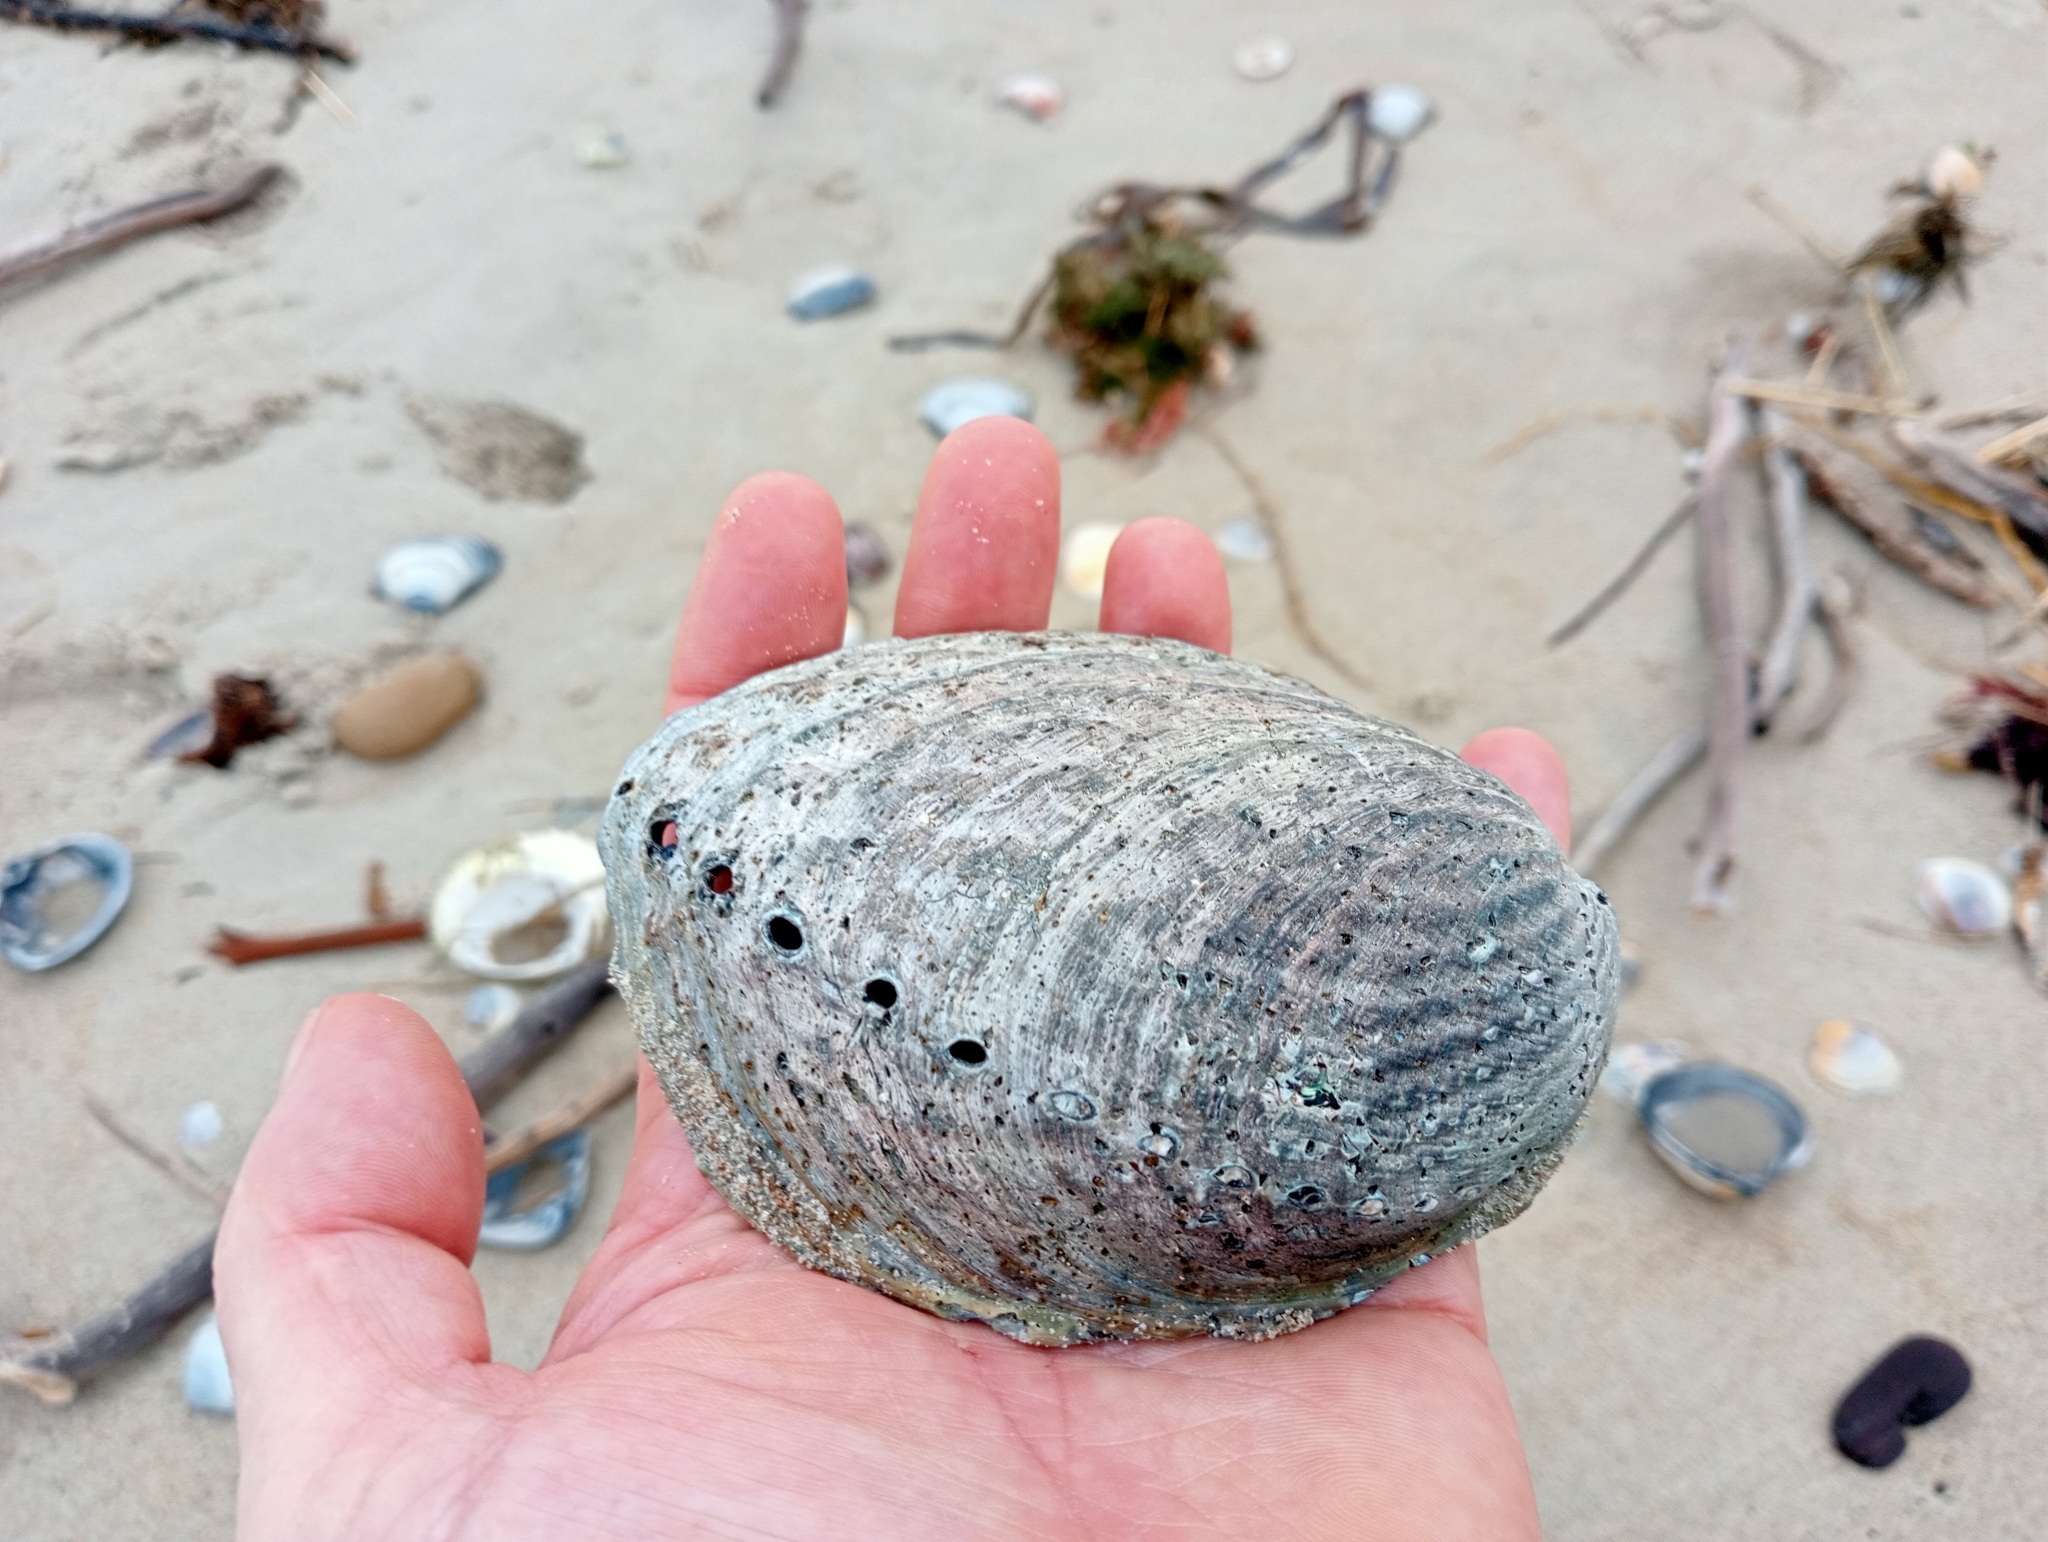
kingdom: Animalia
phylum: Mollusca
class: Gastropoda
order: Lepetellida
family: Haliotidae
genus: Haliotis
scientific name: Haliotis iris
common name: Abalone
